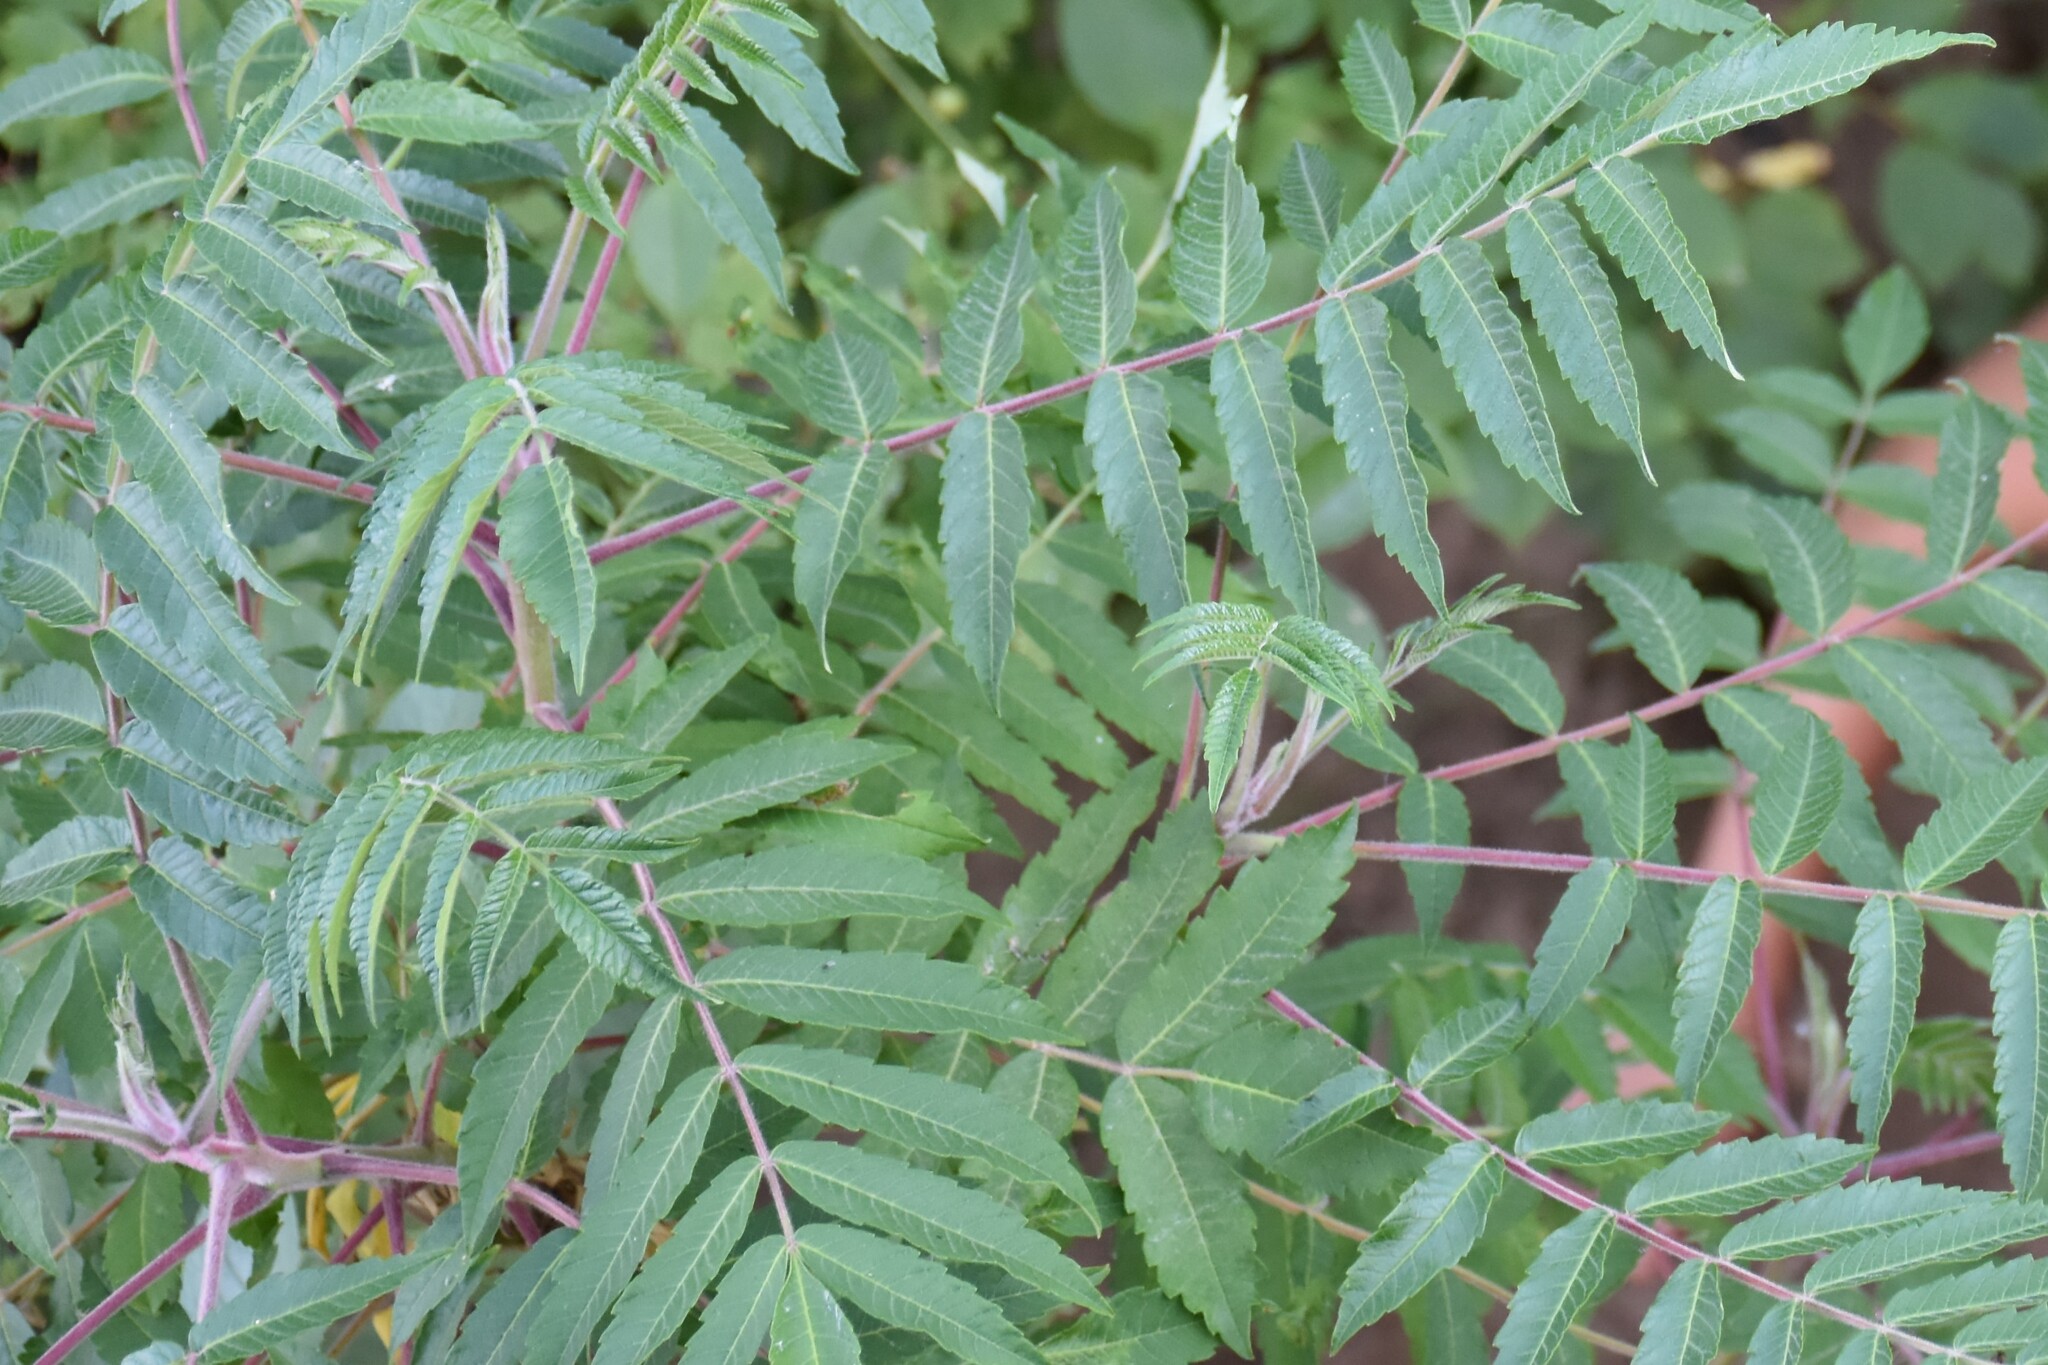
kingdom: Plantae
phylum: Tracheophyta
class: Magnoliopsida
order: Sapindales
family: Anacardiaceae
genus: Rhus
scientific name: Rhus typhina
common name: Staghorn sumac
